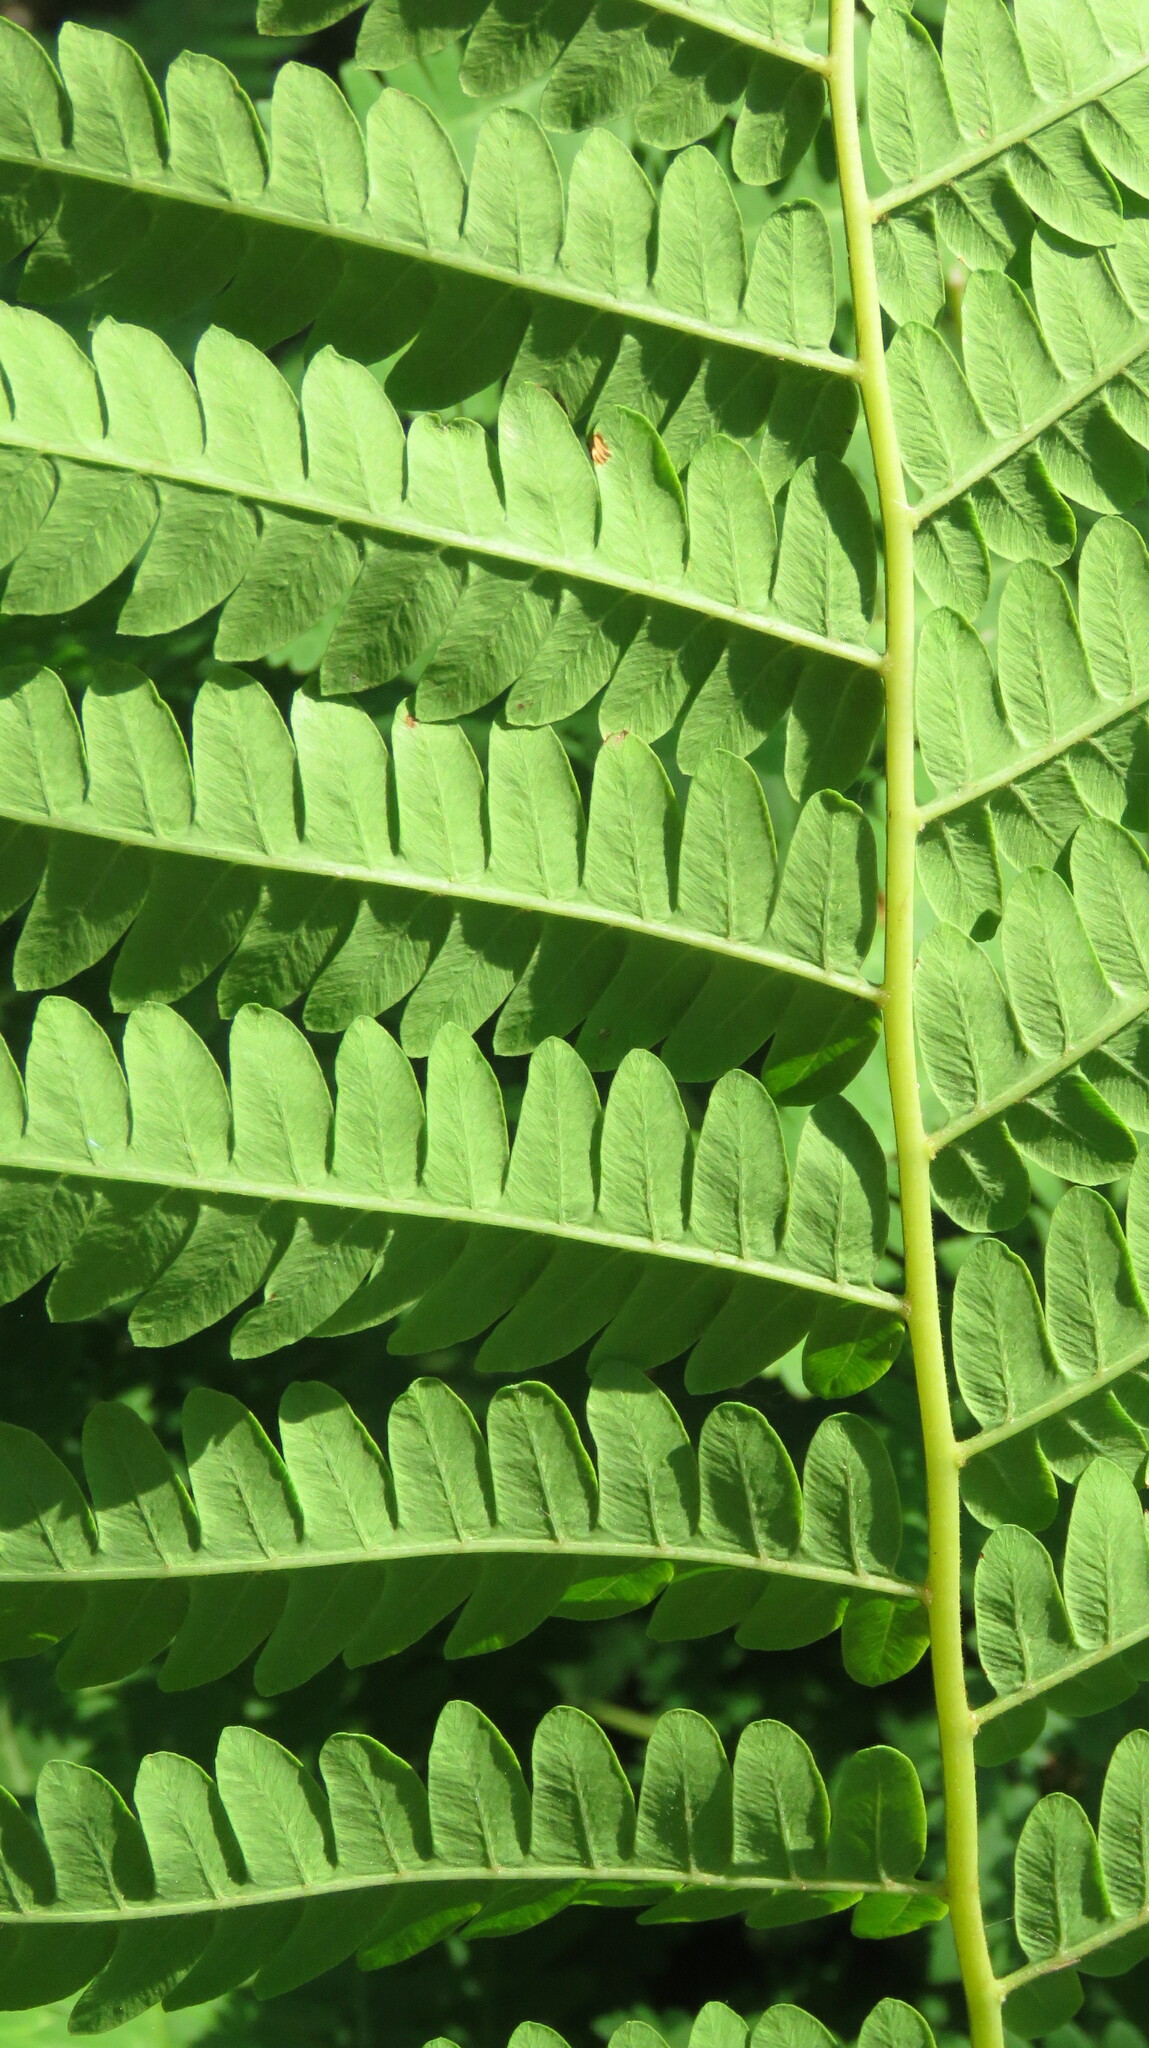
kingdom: Plantae
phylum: Tracheophyta
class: Polypodiopsida
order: Osmundales
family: Osmundaceae
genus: Claytosmunda
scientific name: Claytosmunda claytoniana
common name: Clayton's fern
